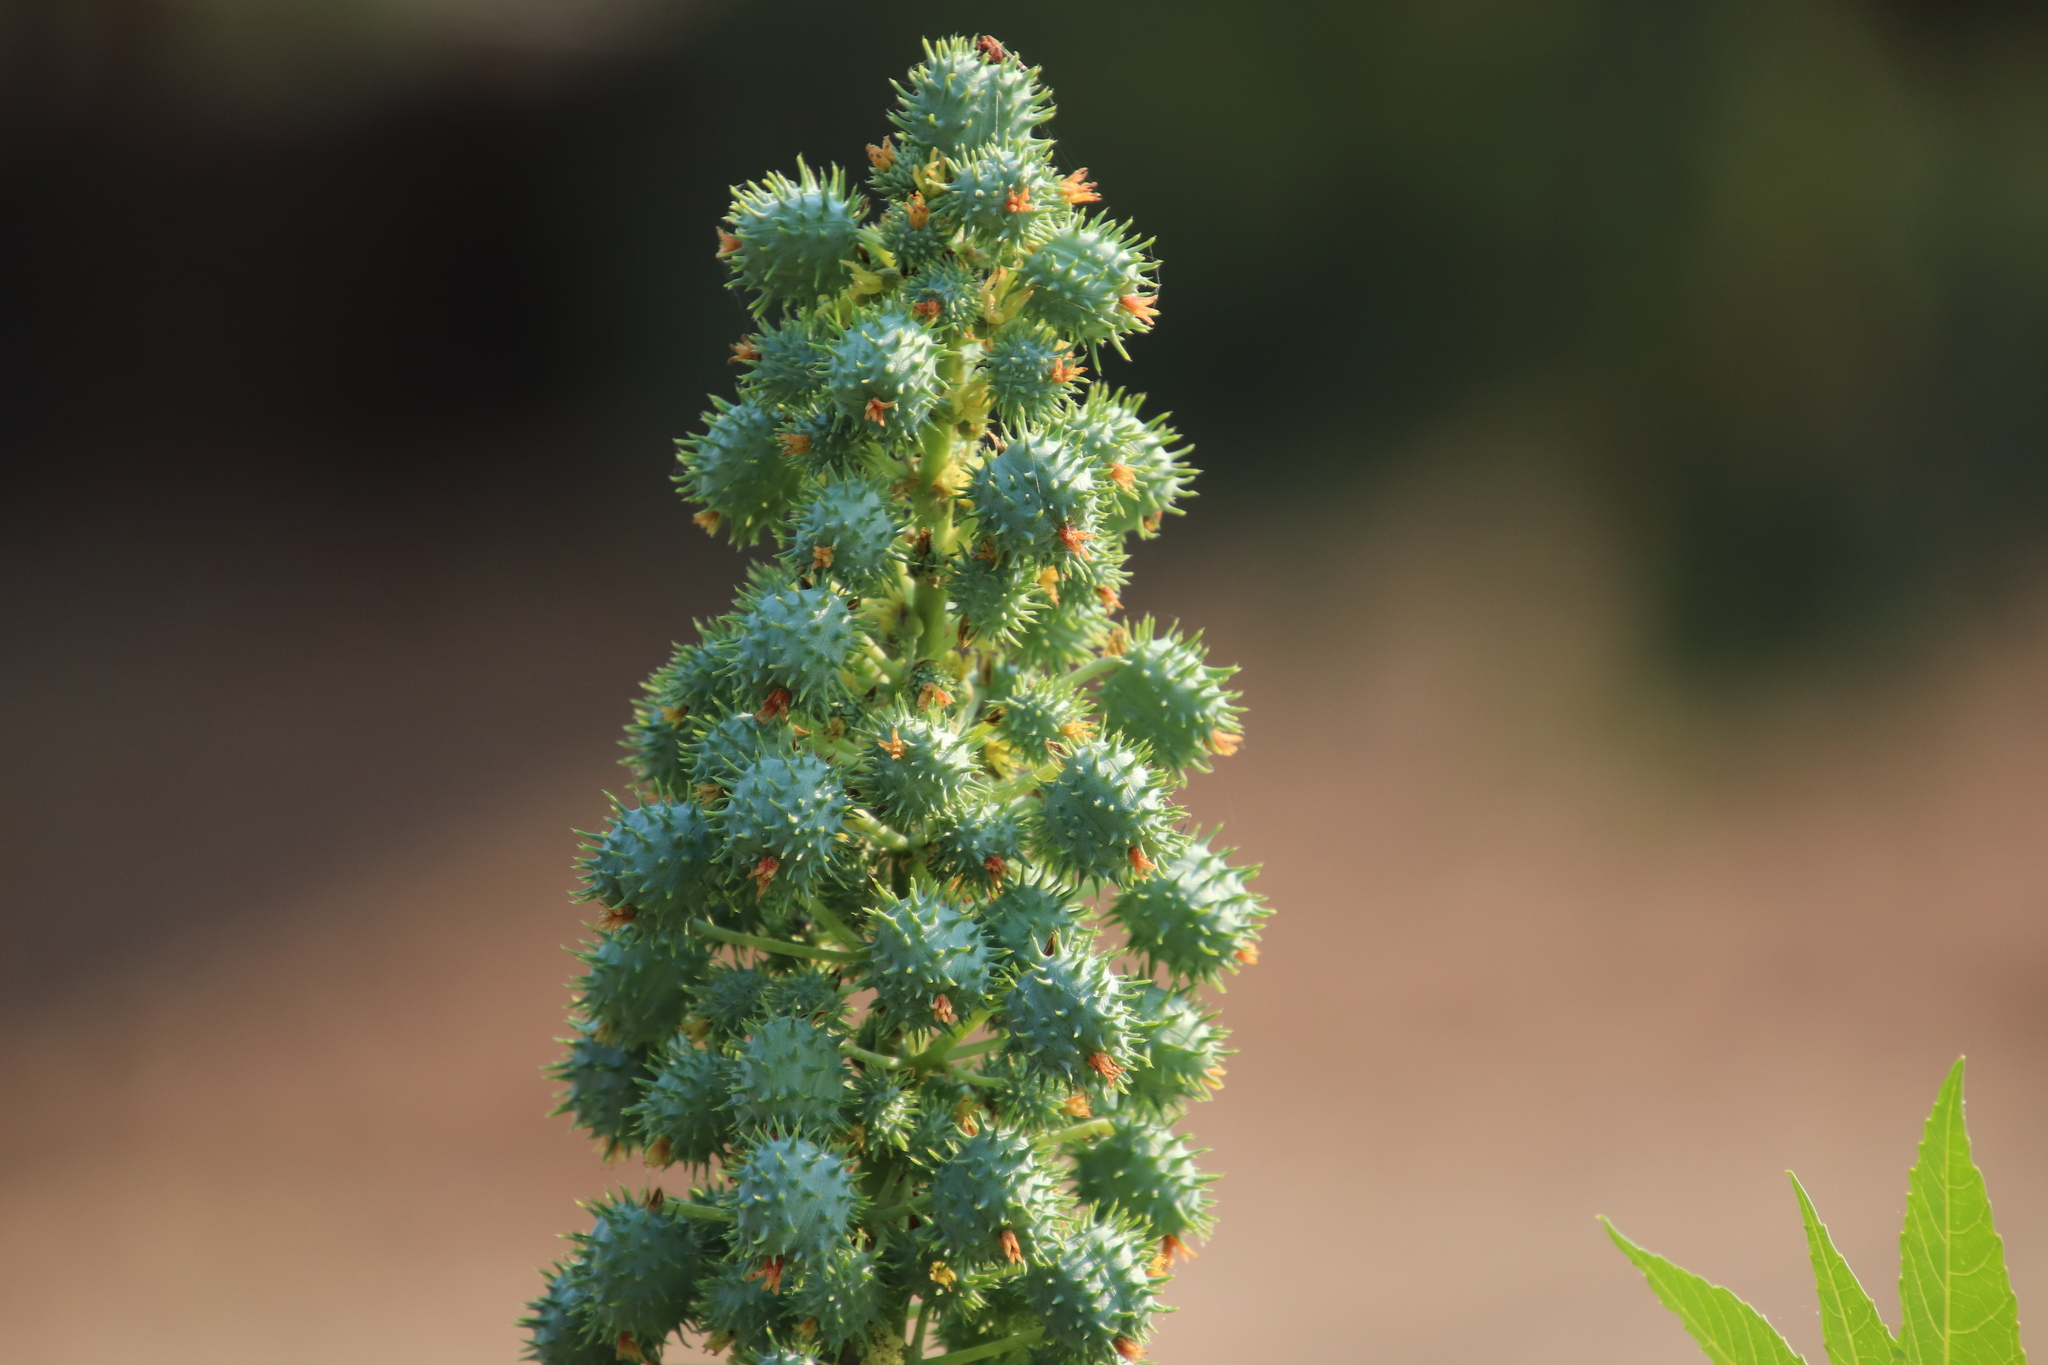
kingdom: Plantae
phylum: Tracheophyta
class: Magnoliopsida
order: Malpighiales
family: Euphorbiaceae
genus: Ricinus
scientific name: Ricinus communis
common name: Castor-oil-plant
